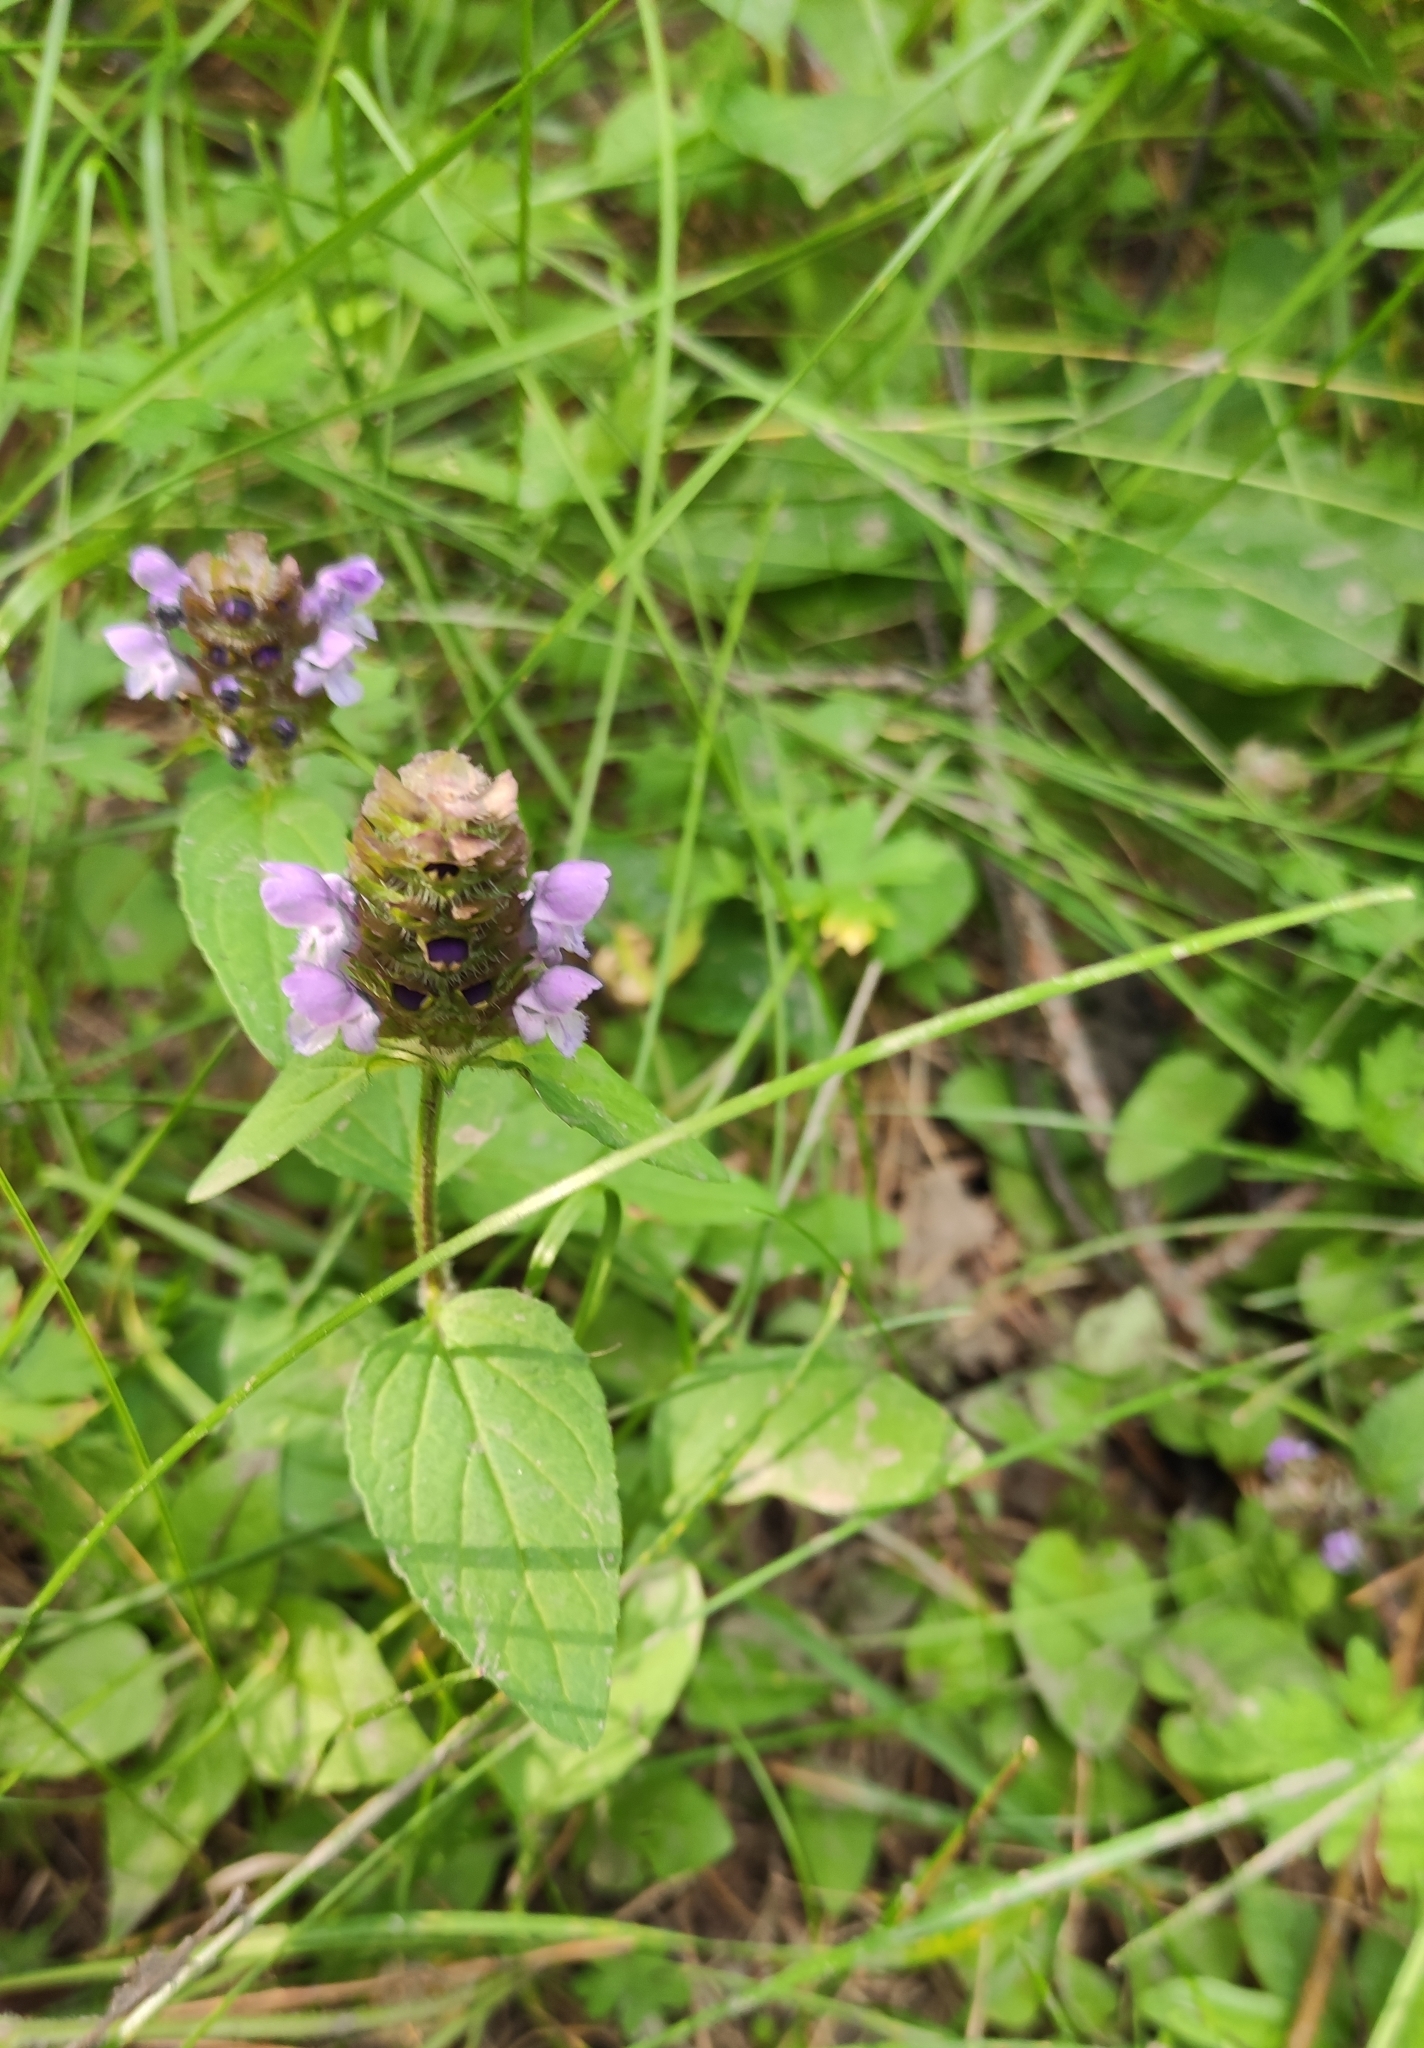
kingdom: Plantae
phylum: Tracheophyta
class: Magnoliopsida
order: Lamiales
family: Lamiaceae
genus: Prunella
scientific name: Prunella vulgaris
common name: Heal-all
